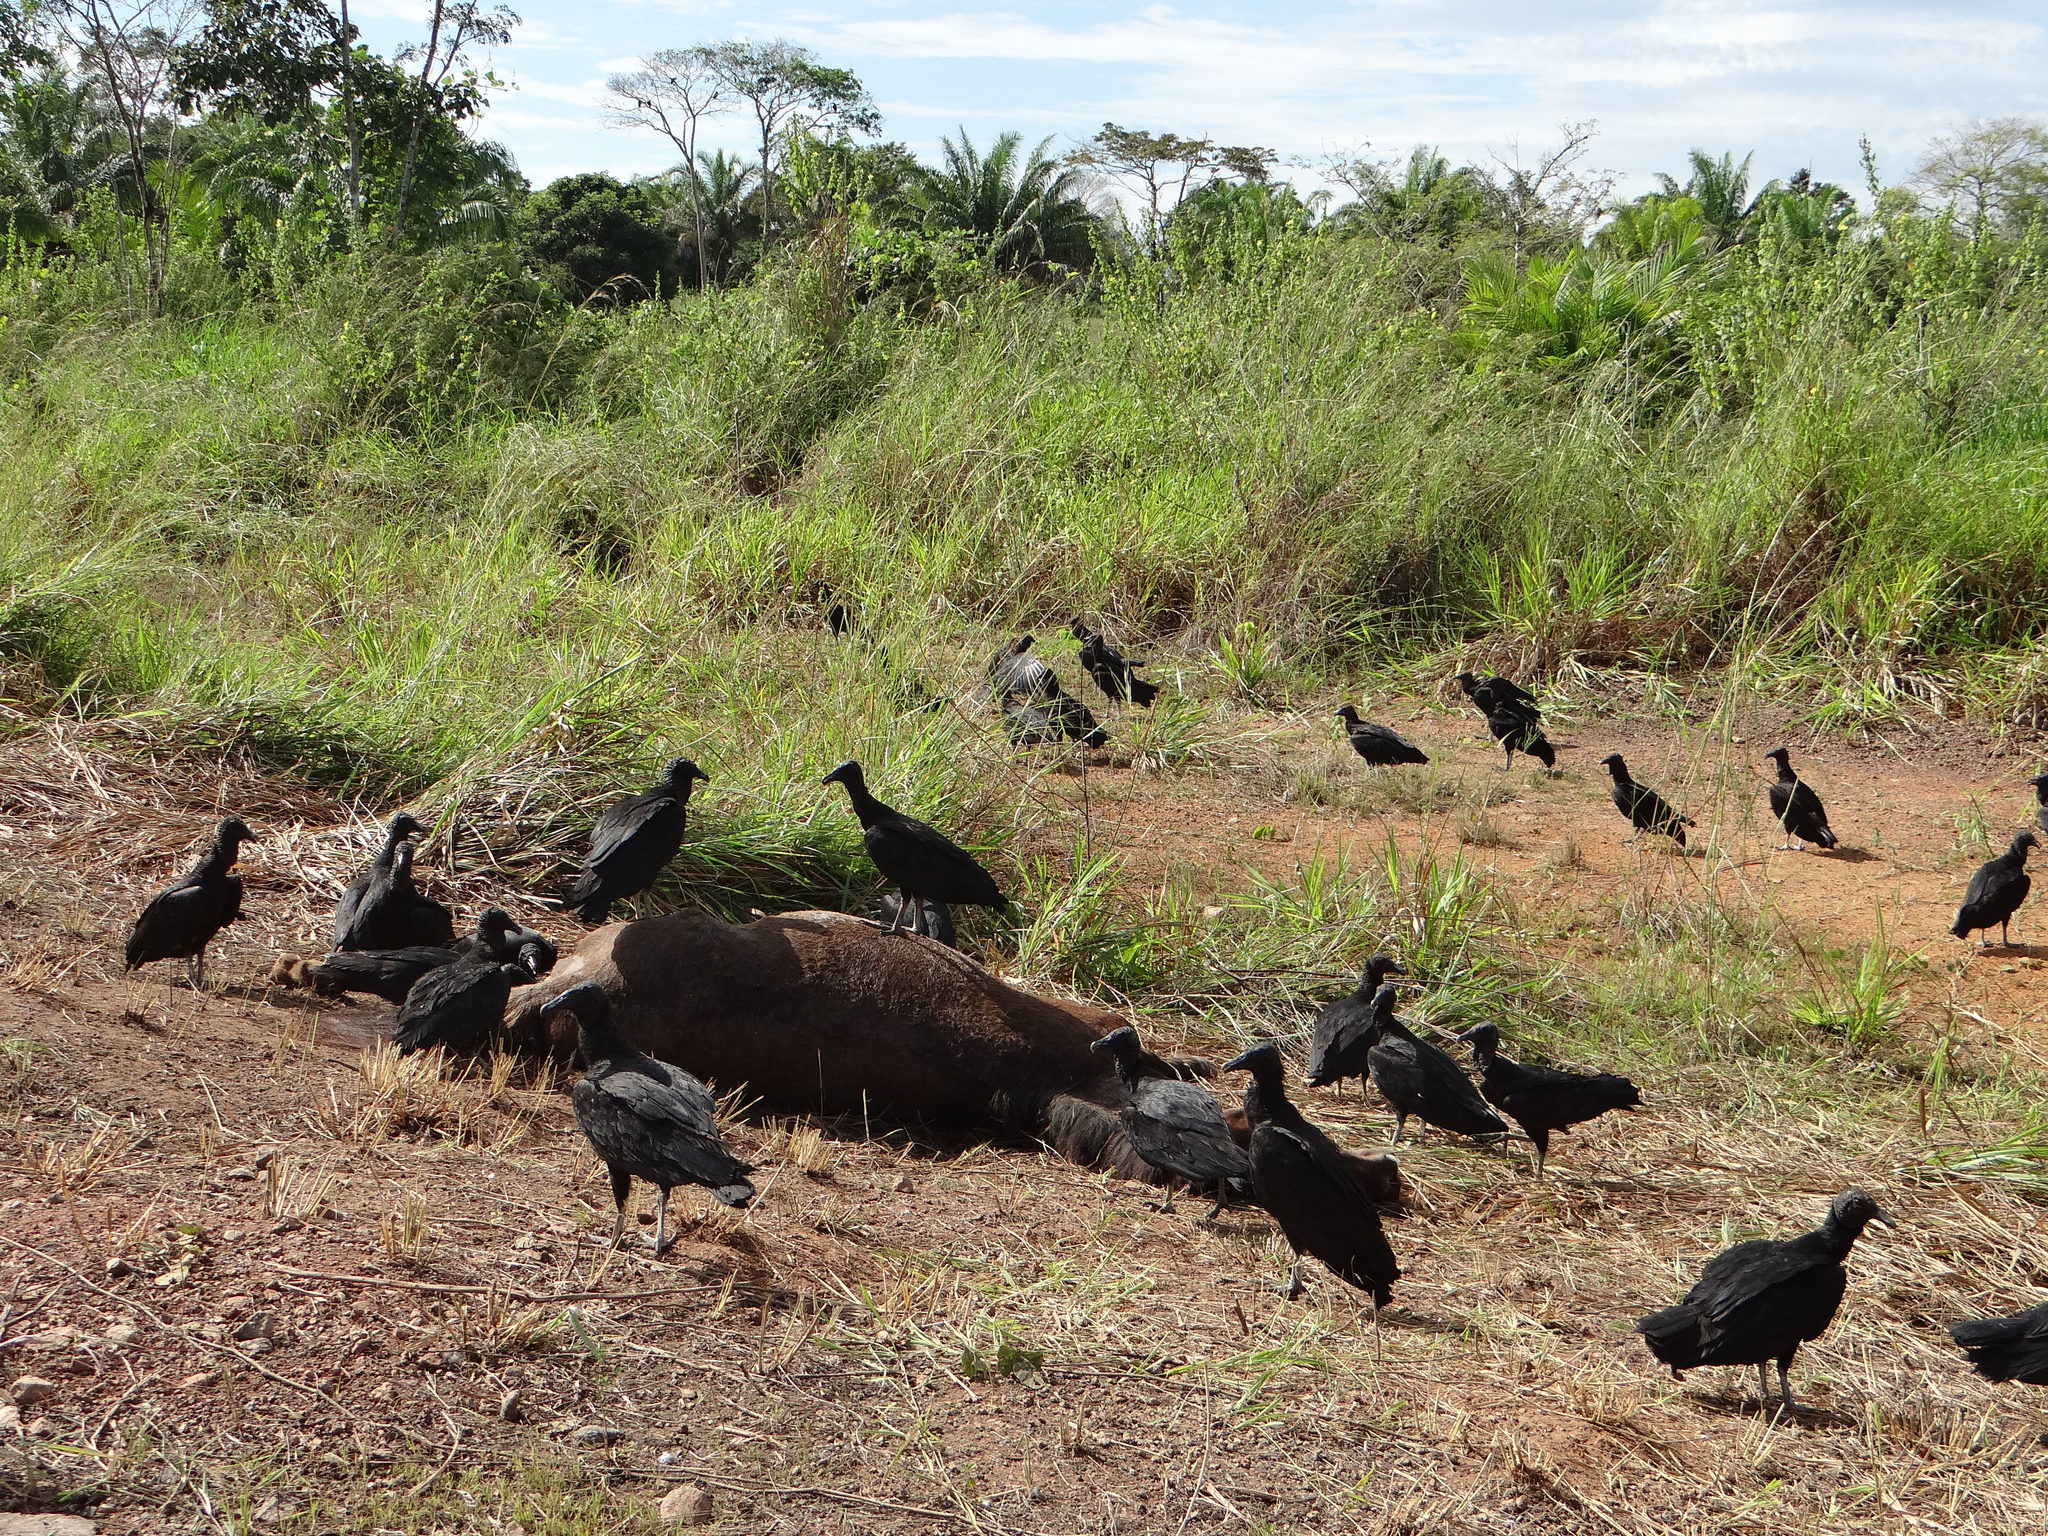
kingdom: Animalia
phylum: Chordata
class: Mammalia
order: Perissodactyla
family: Equidae
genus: Equus
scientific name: Equus caballus
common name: Horse
